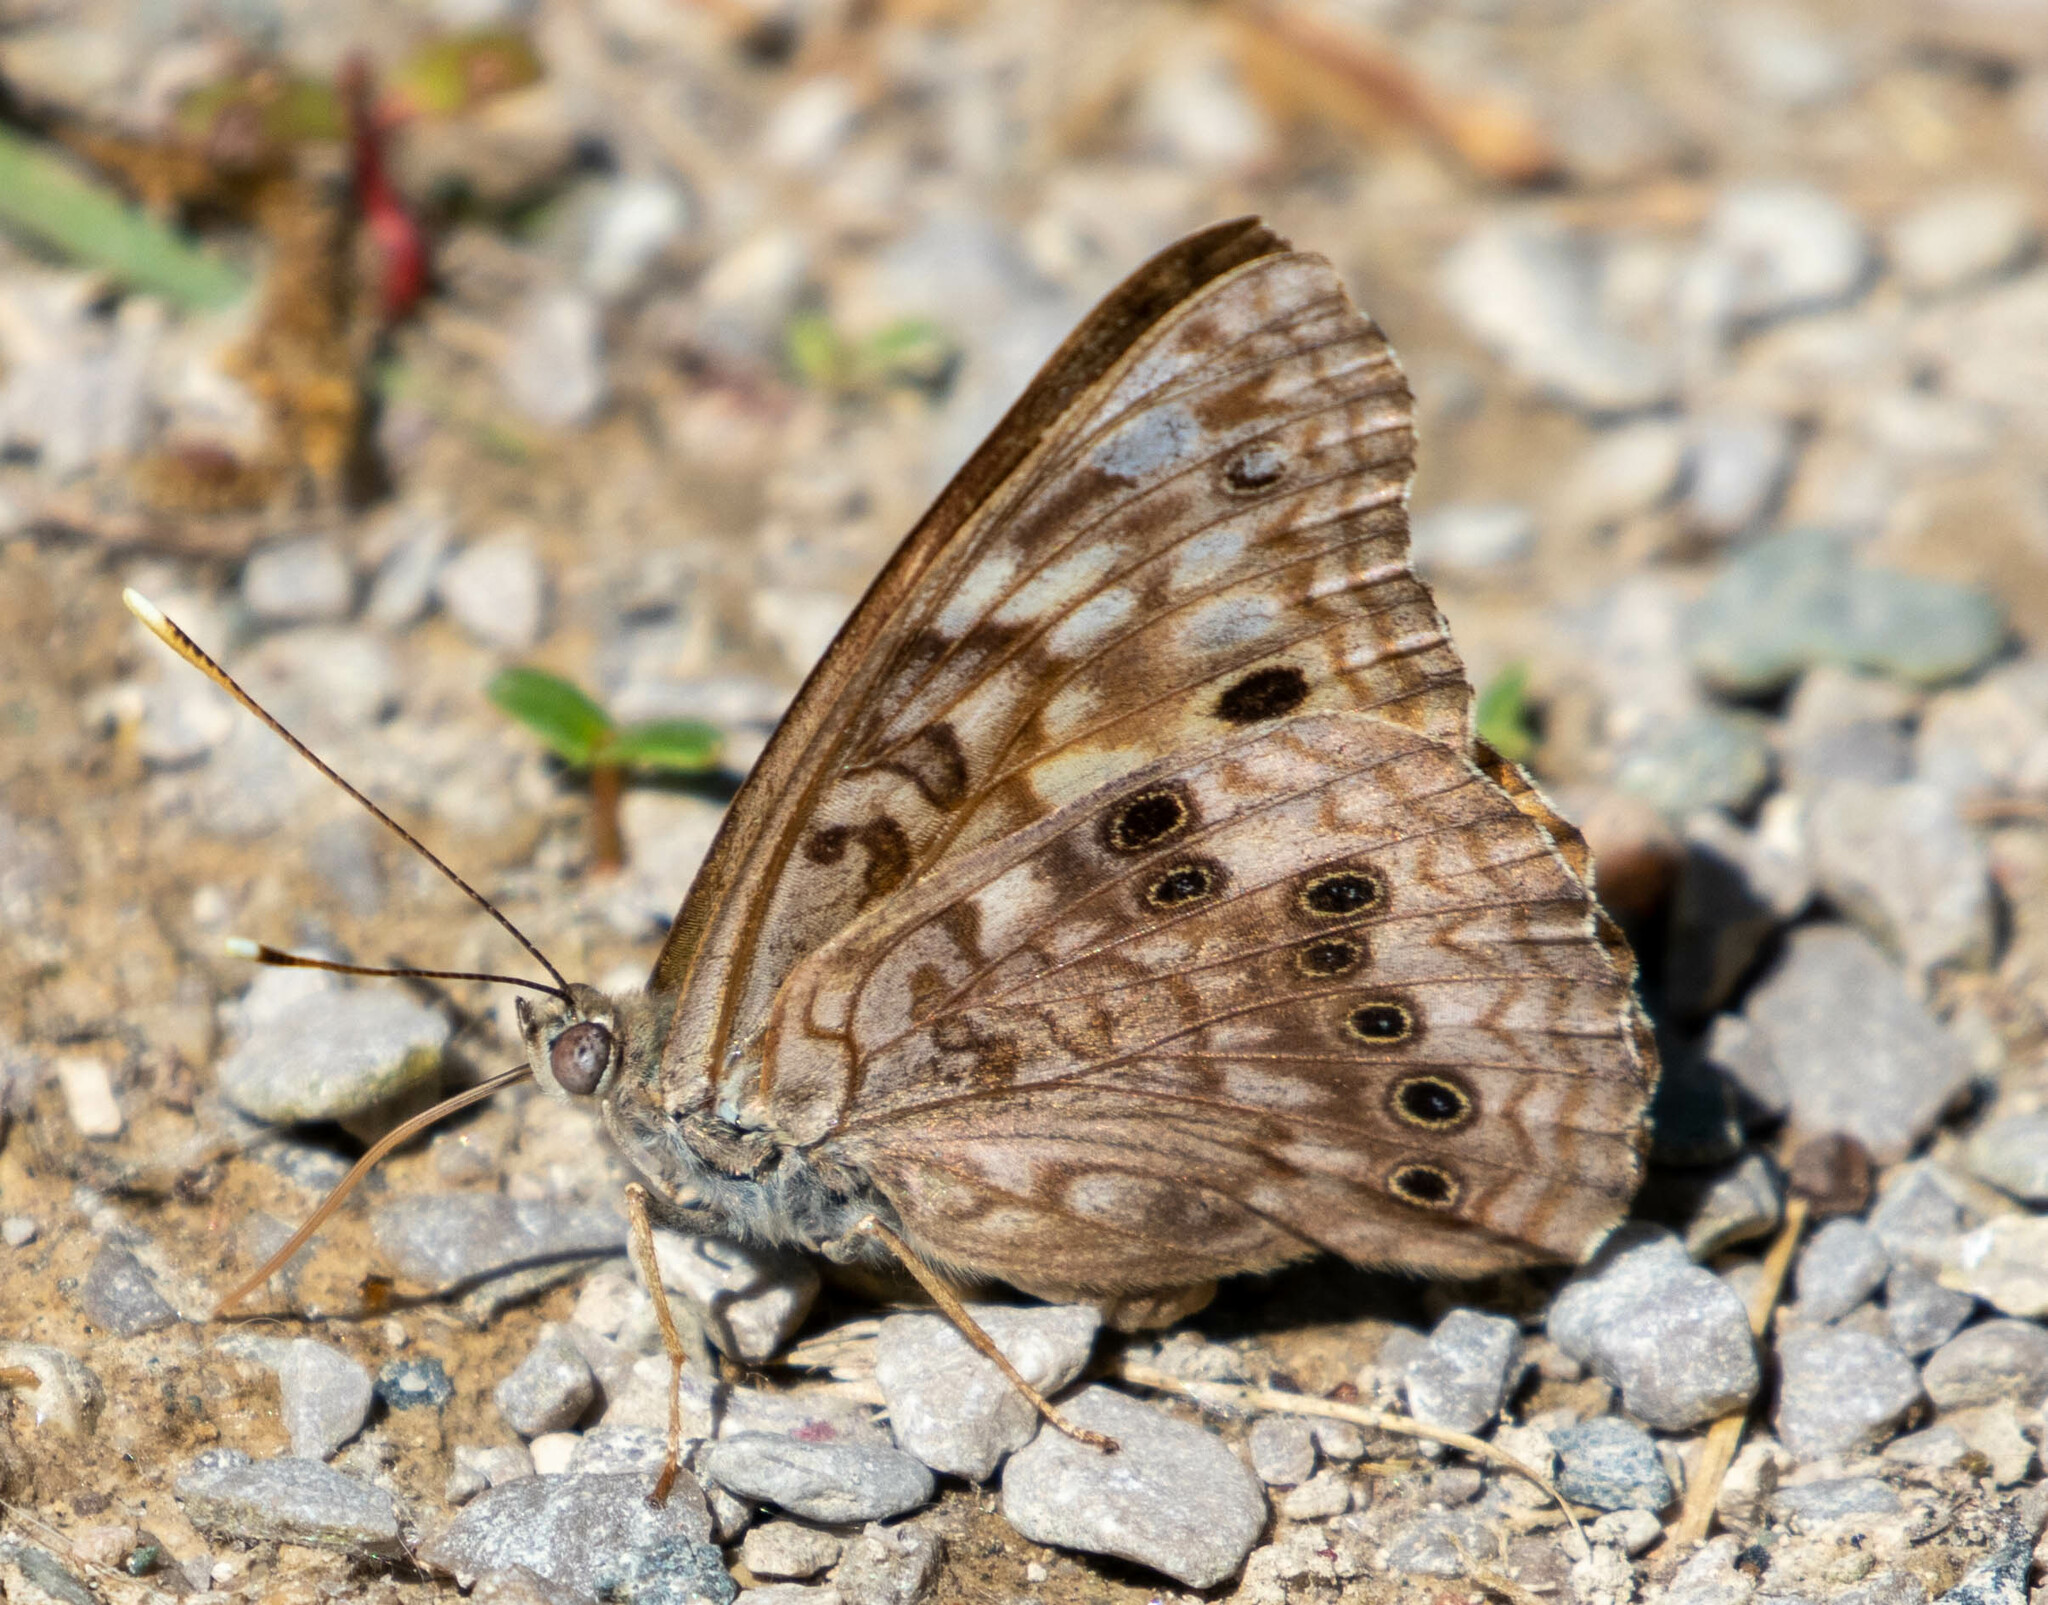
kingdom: Animalia
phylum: Arthropoda
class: Insecta
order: Lepidoptera
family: Nymphalidae
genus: Asterocampa
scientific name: Asterocampa celtis
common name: Hackberry emperor
